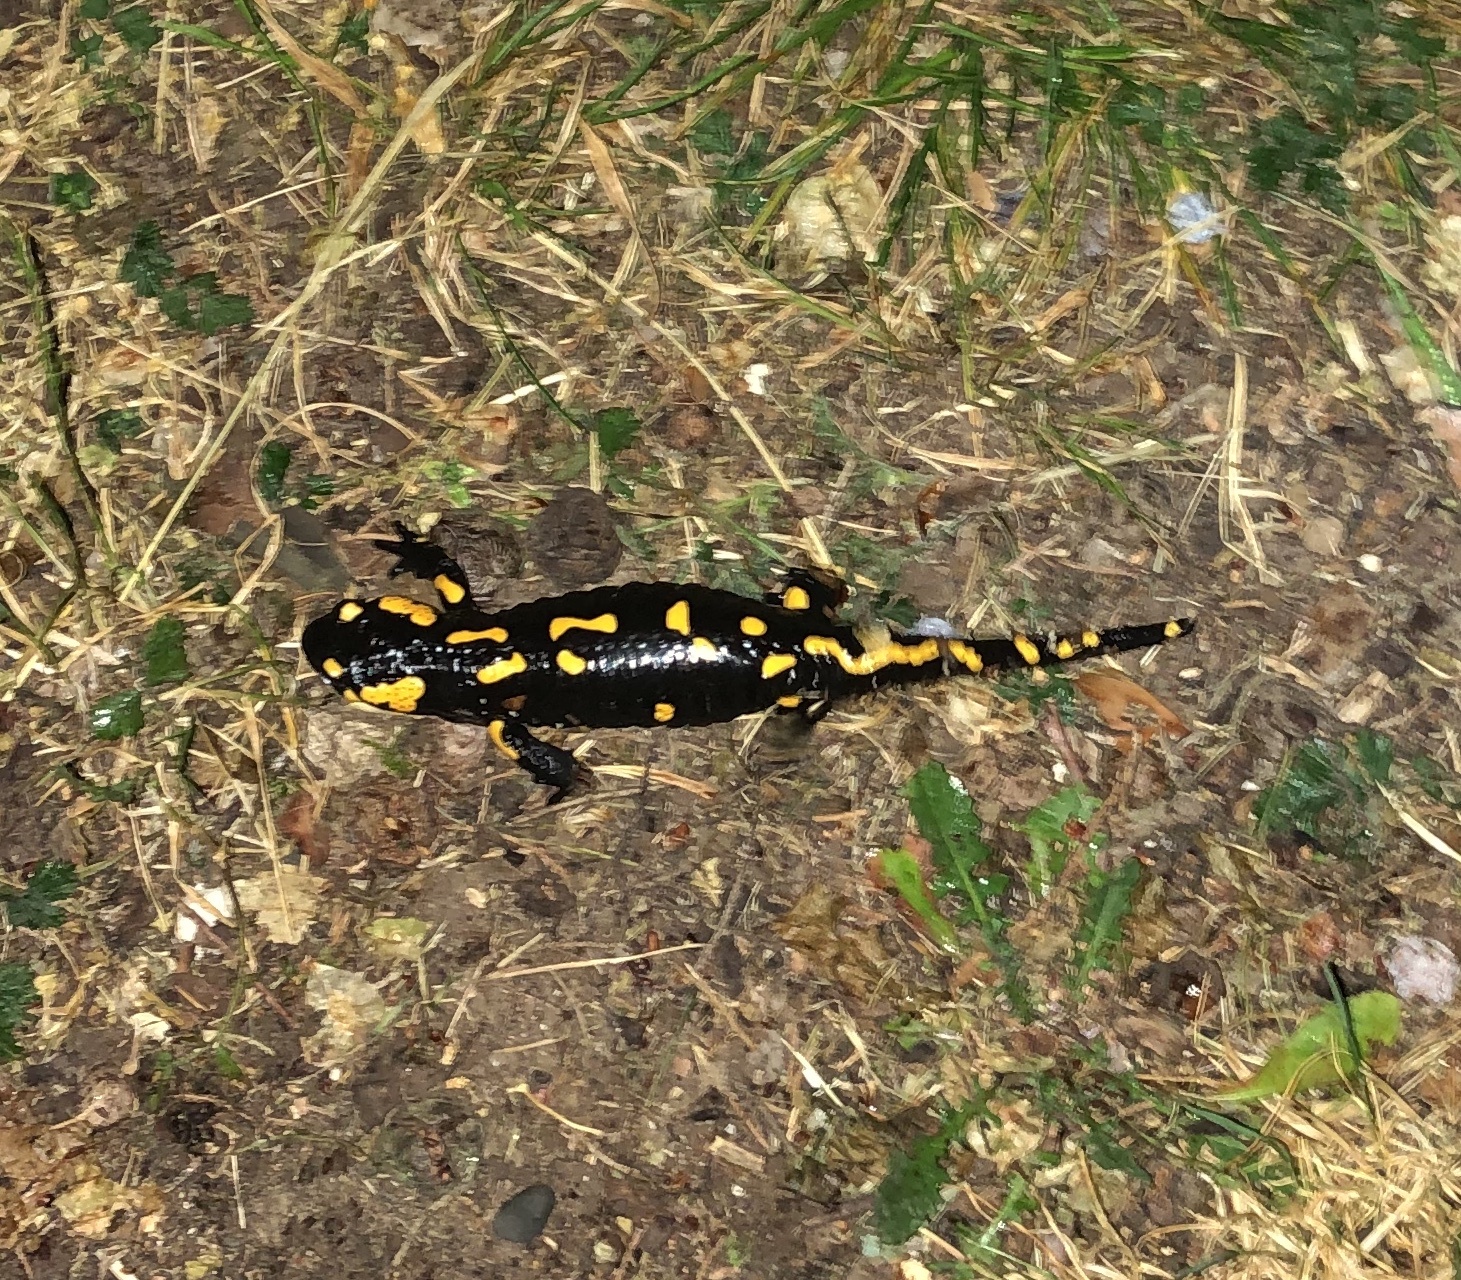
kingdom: Animalia
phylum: Chordata
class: Amphibia
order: Caudata
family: Salamandridae
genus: Salamandra
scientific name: Salamandra salamandra
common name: Fire salamander
